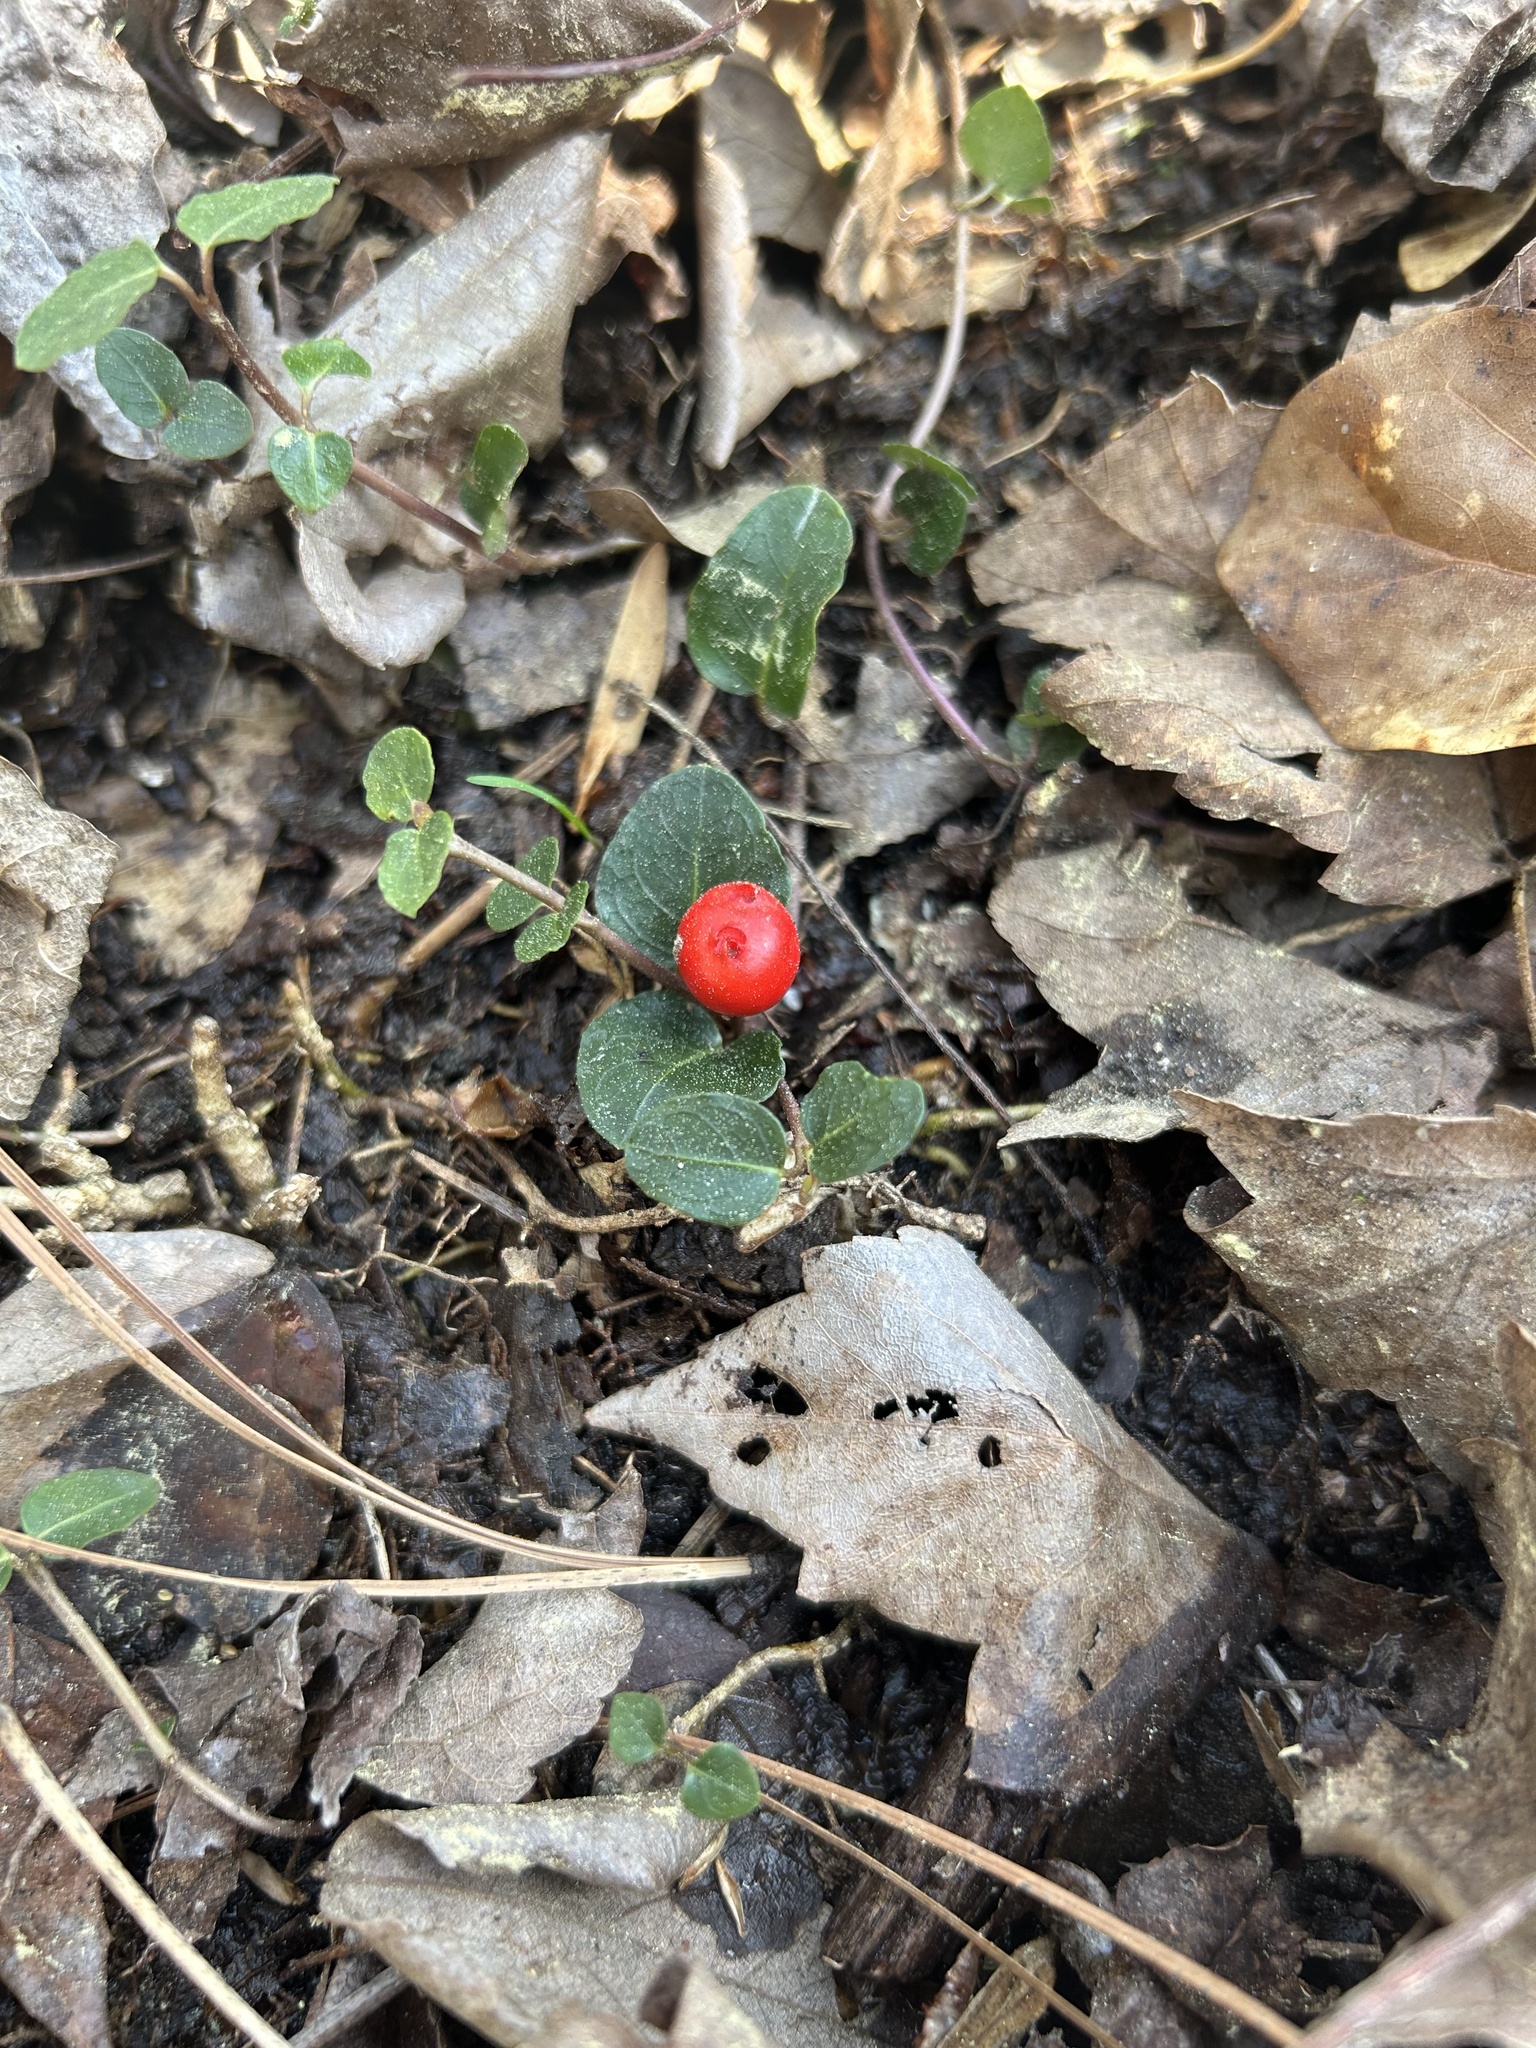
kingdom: Plantae
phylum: Tracheophyta
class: Magnoliopsida
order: Gentianales
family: Rubiaceae
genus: Mitchella
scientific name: Mitchella repens
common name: Partridge-berry
